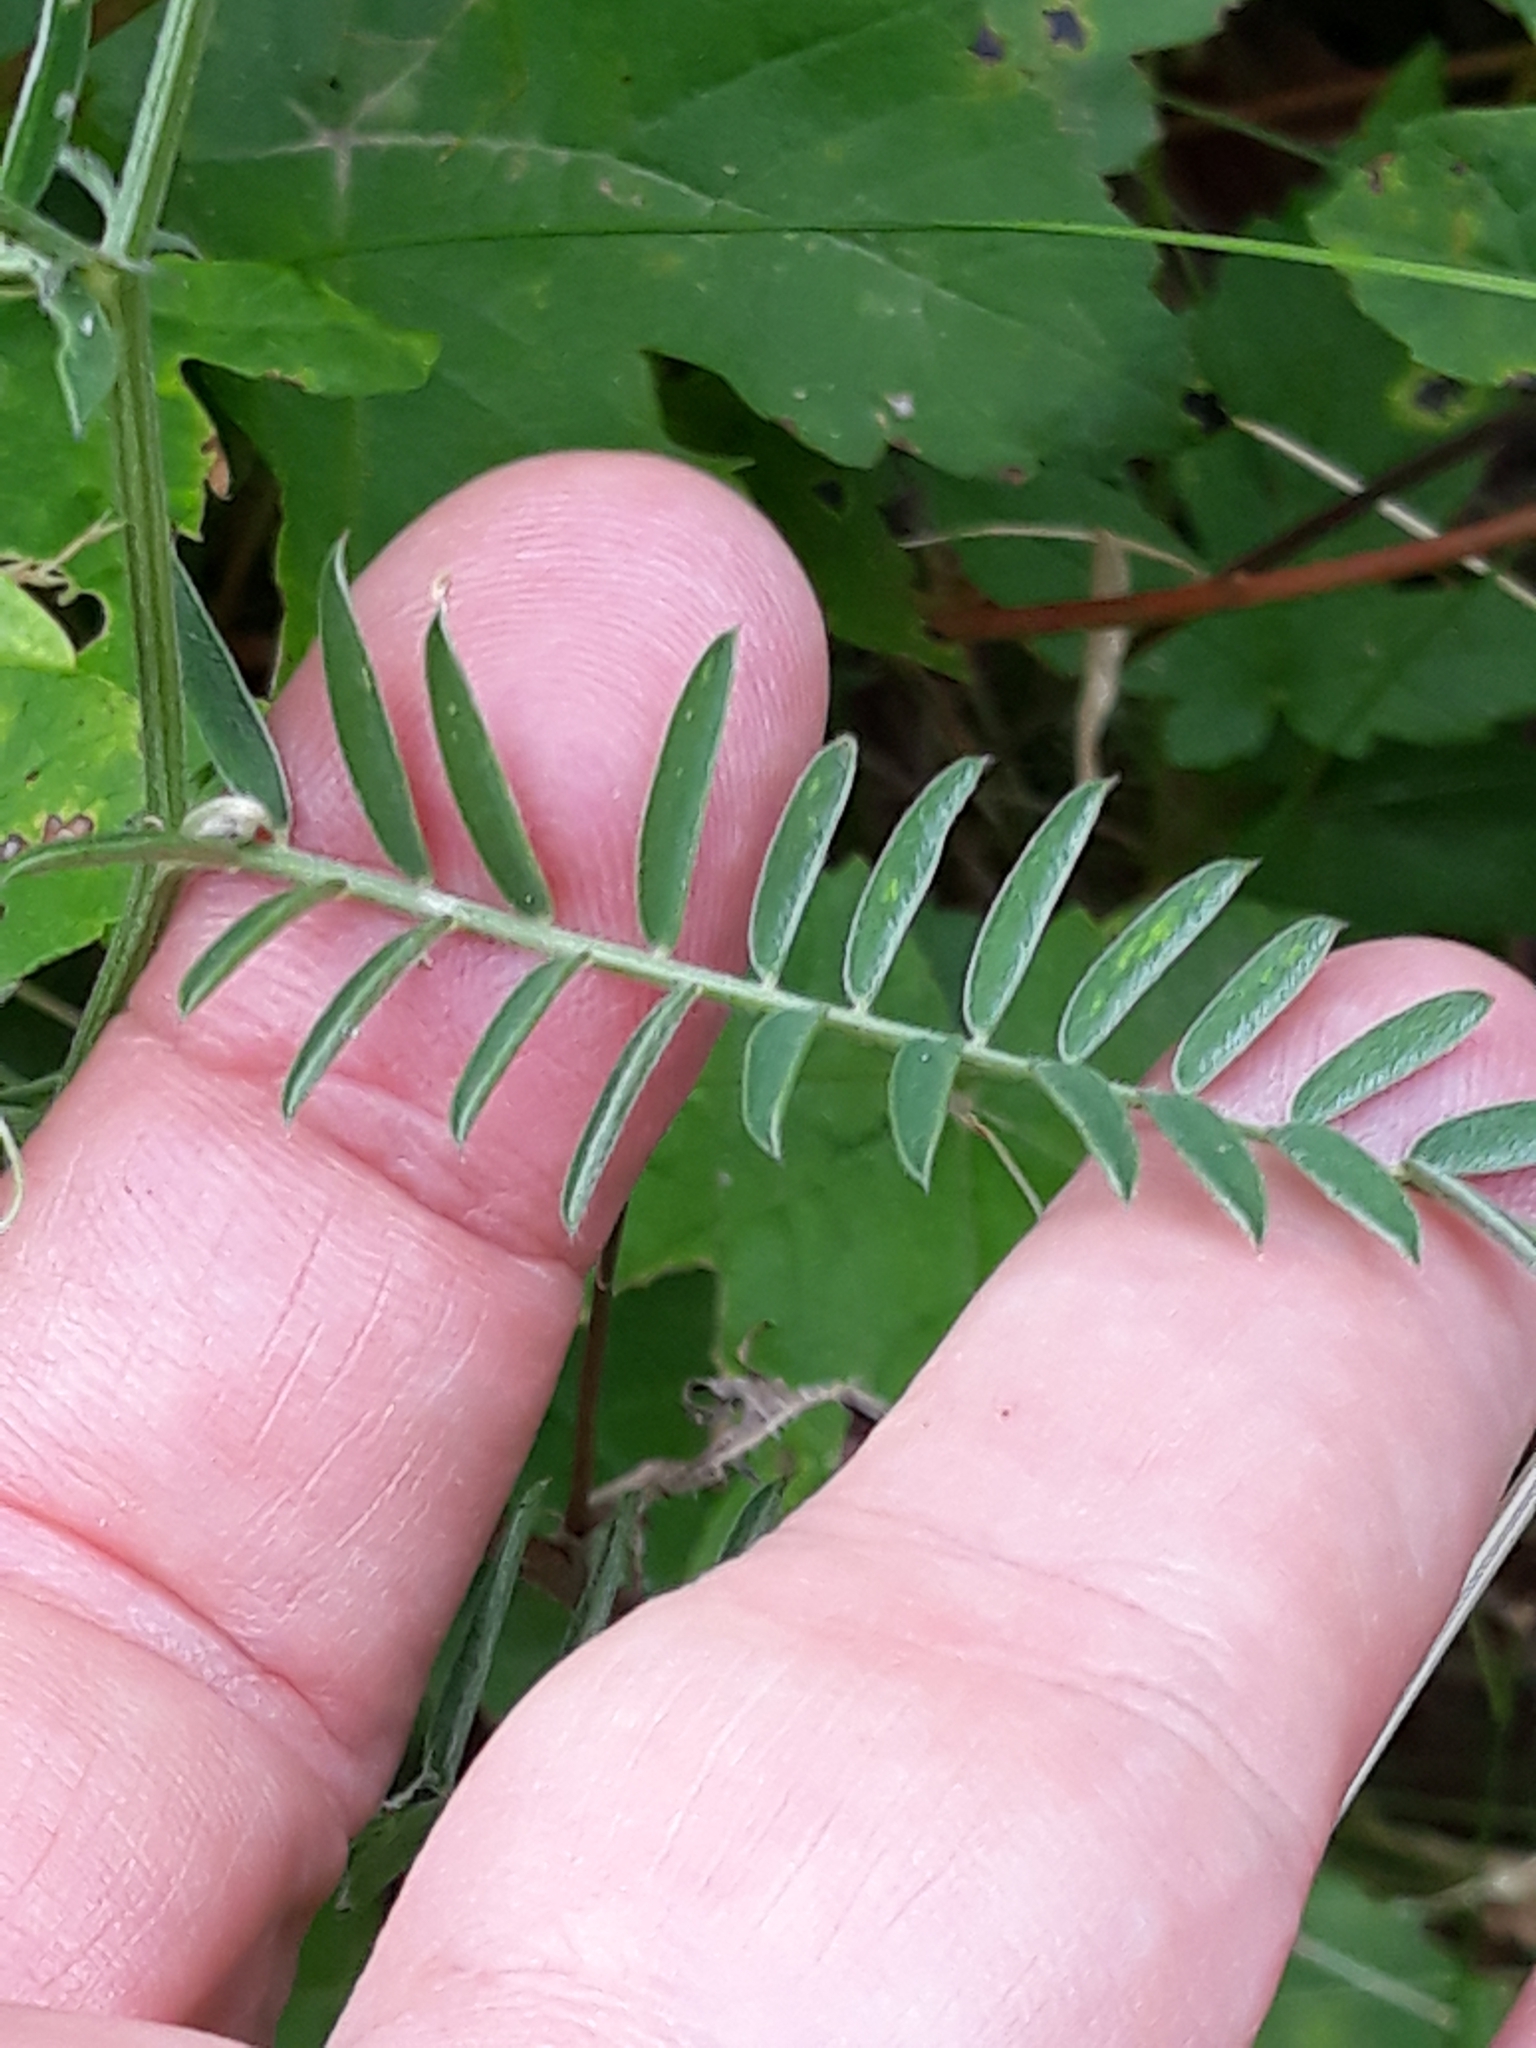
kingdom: Plantae
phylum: Tracheophyta
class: Magnoliopsida
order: Fabales
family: Fabaceae
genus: Vicia
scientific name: Vicia cracca
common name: Bird vetch
